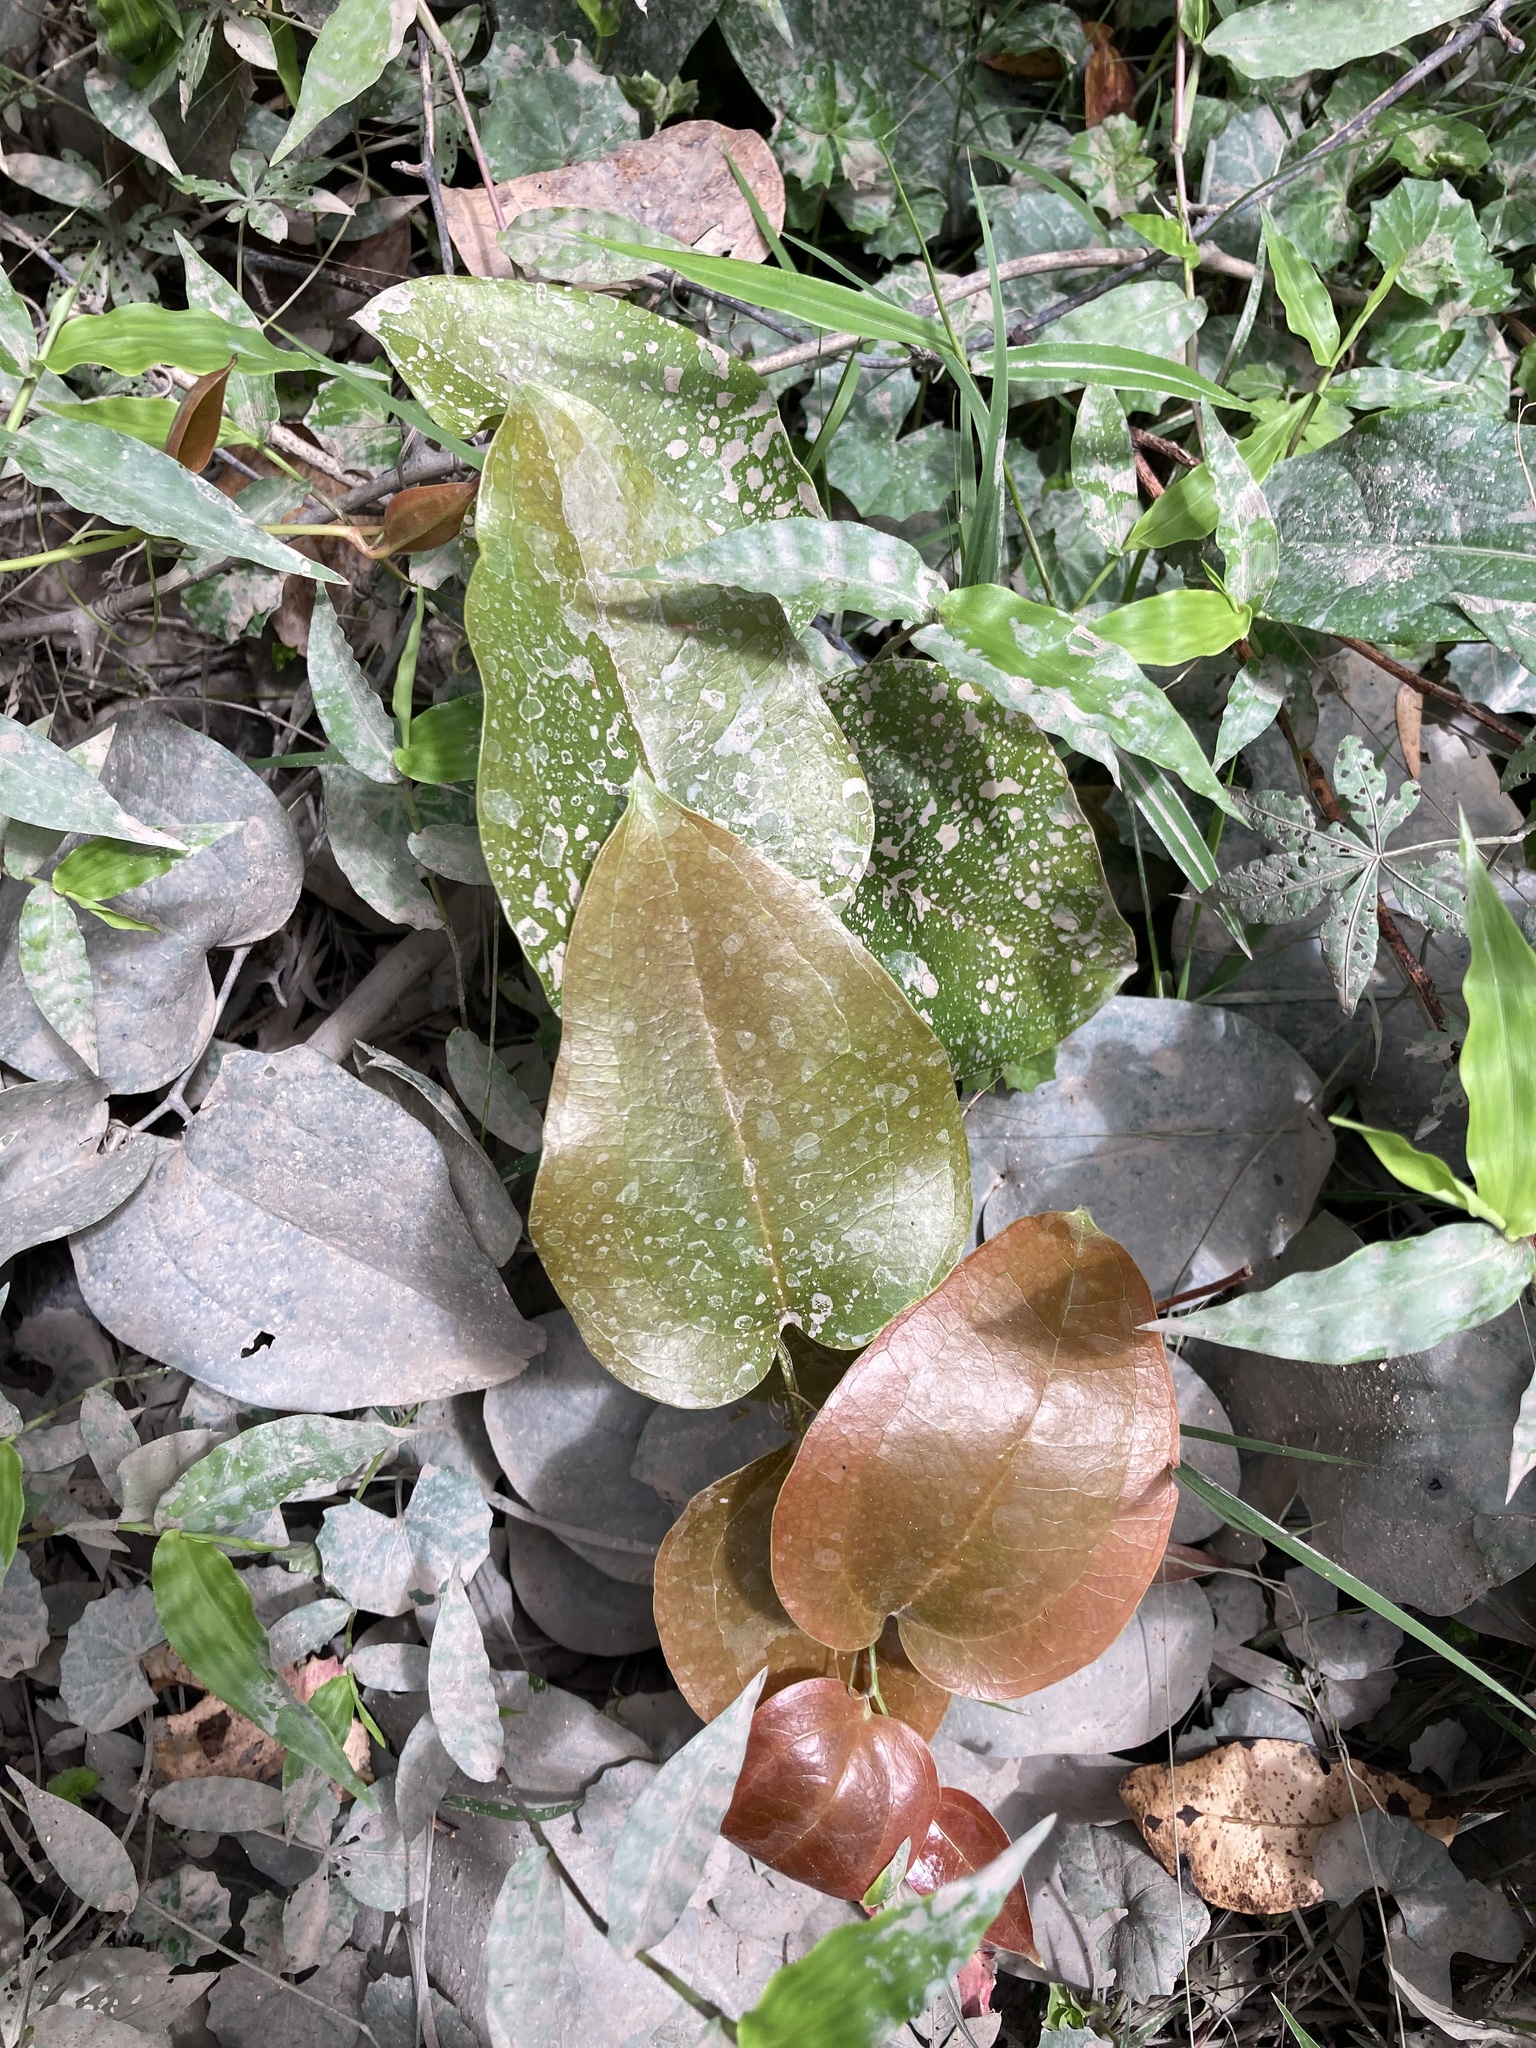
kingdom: Plantae
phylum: Tracheophyta
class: Liliopsida
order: Liliales
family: Smilacaceae
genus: Smilax
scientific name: Smilax australis
